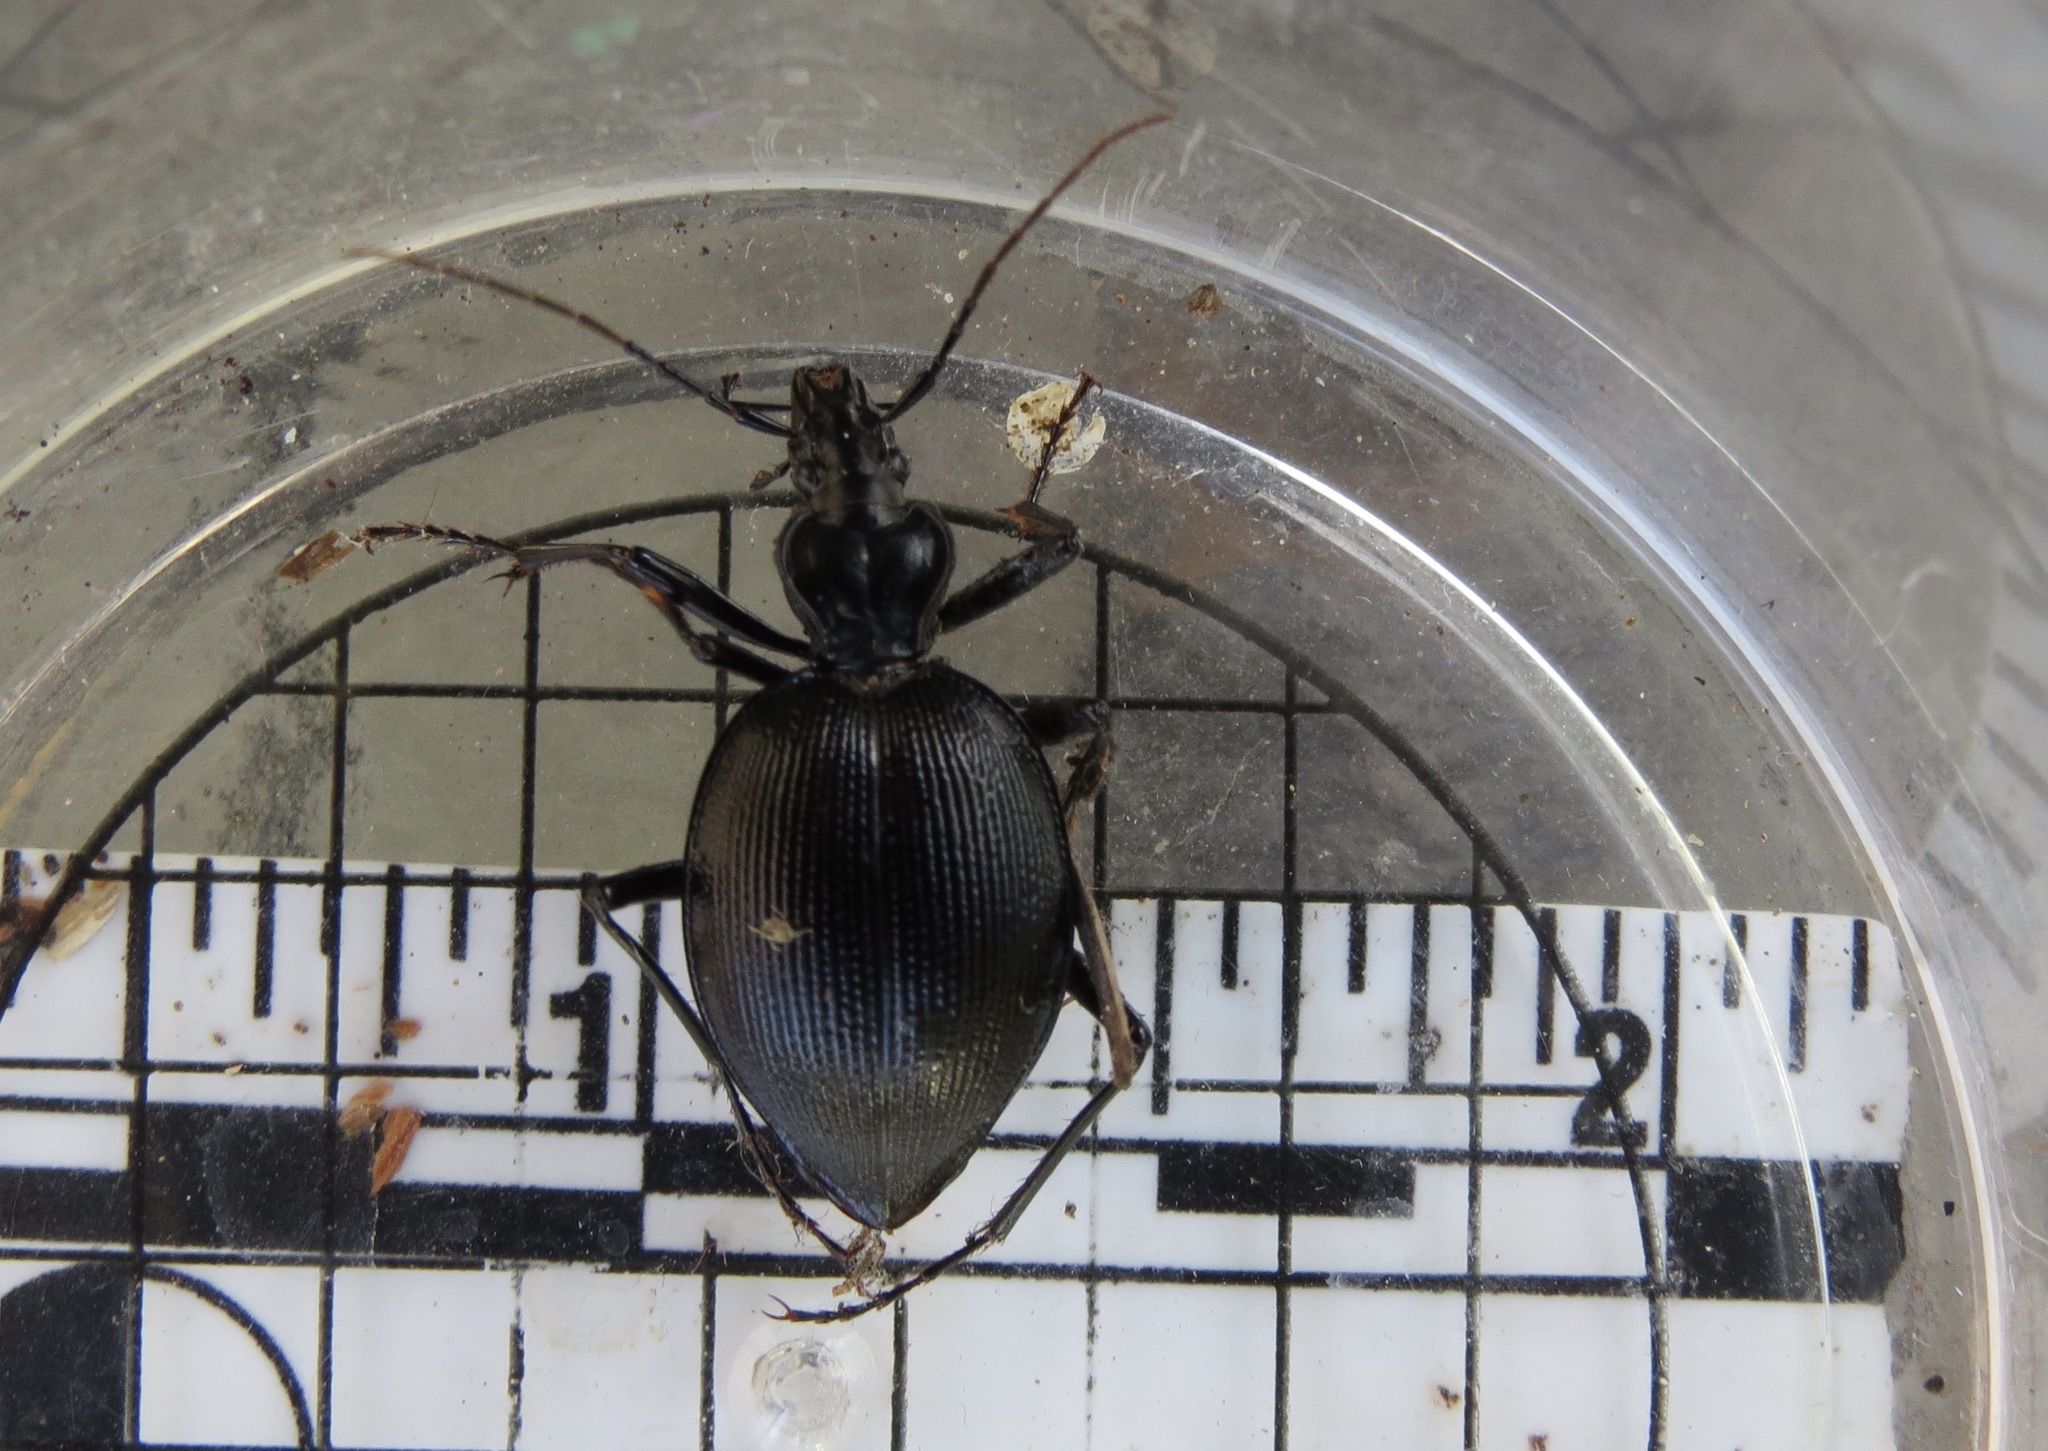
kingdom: Animalia
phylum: Arthropoda
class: Insecta
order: Coleoptera
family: Carabidae
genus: Scaphinotus
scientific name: Scaphinotus interruptus
